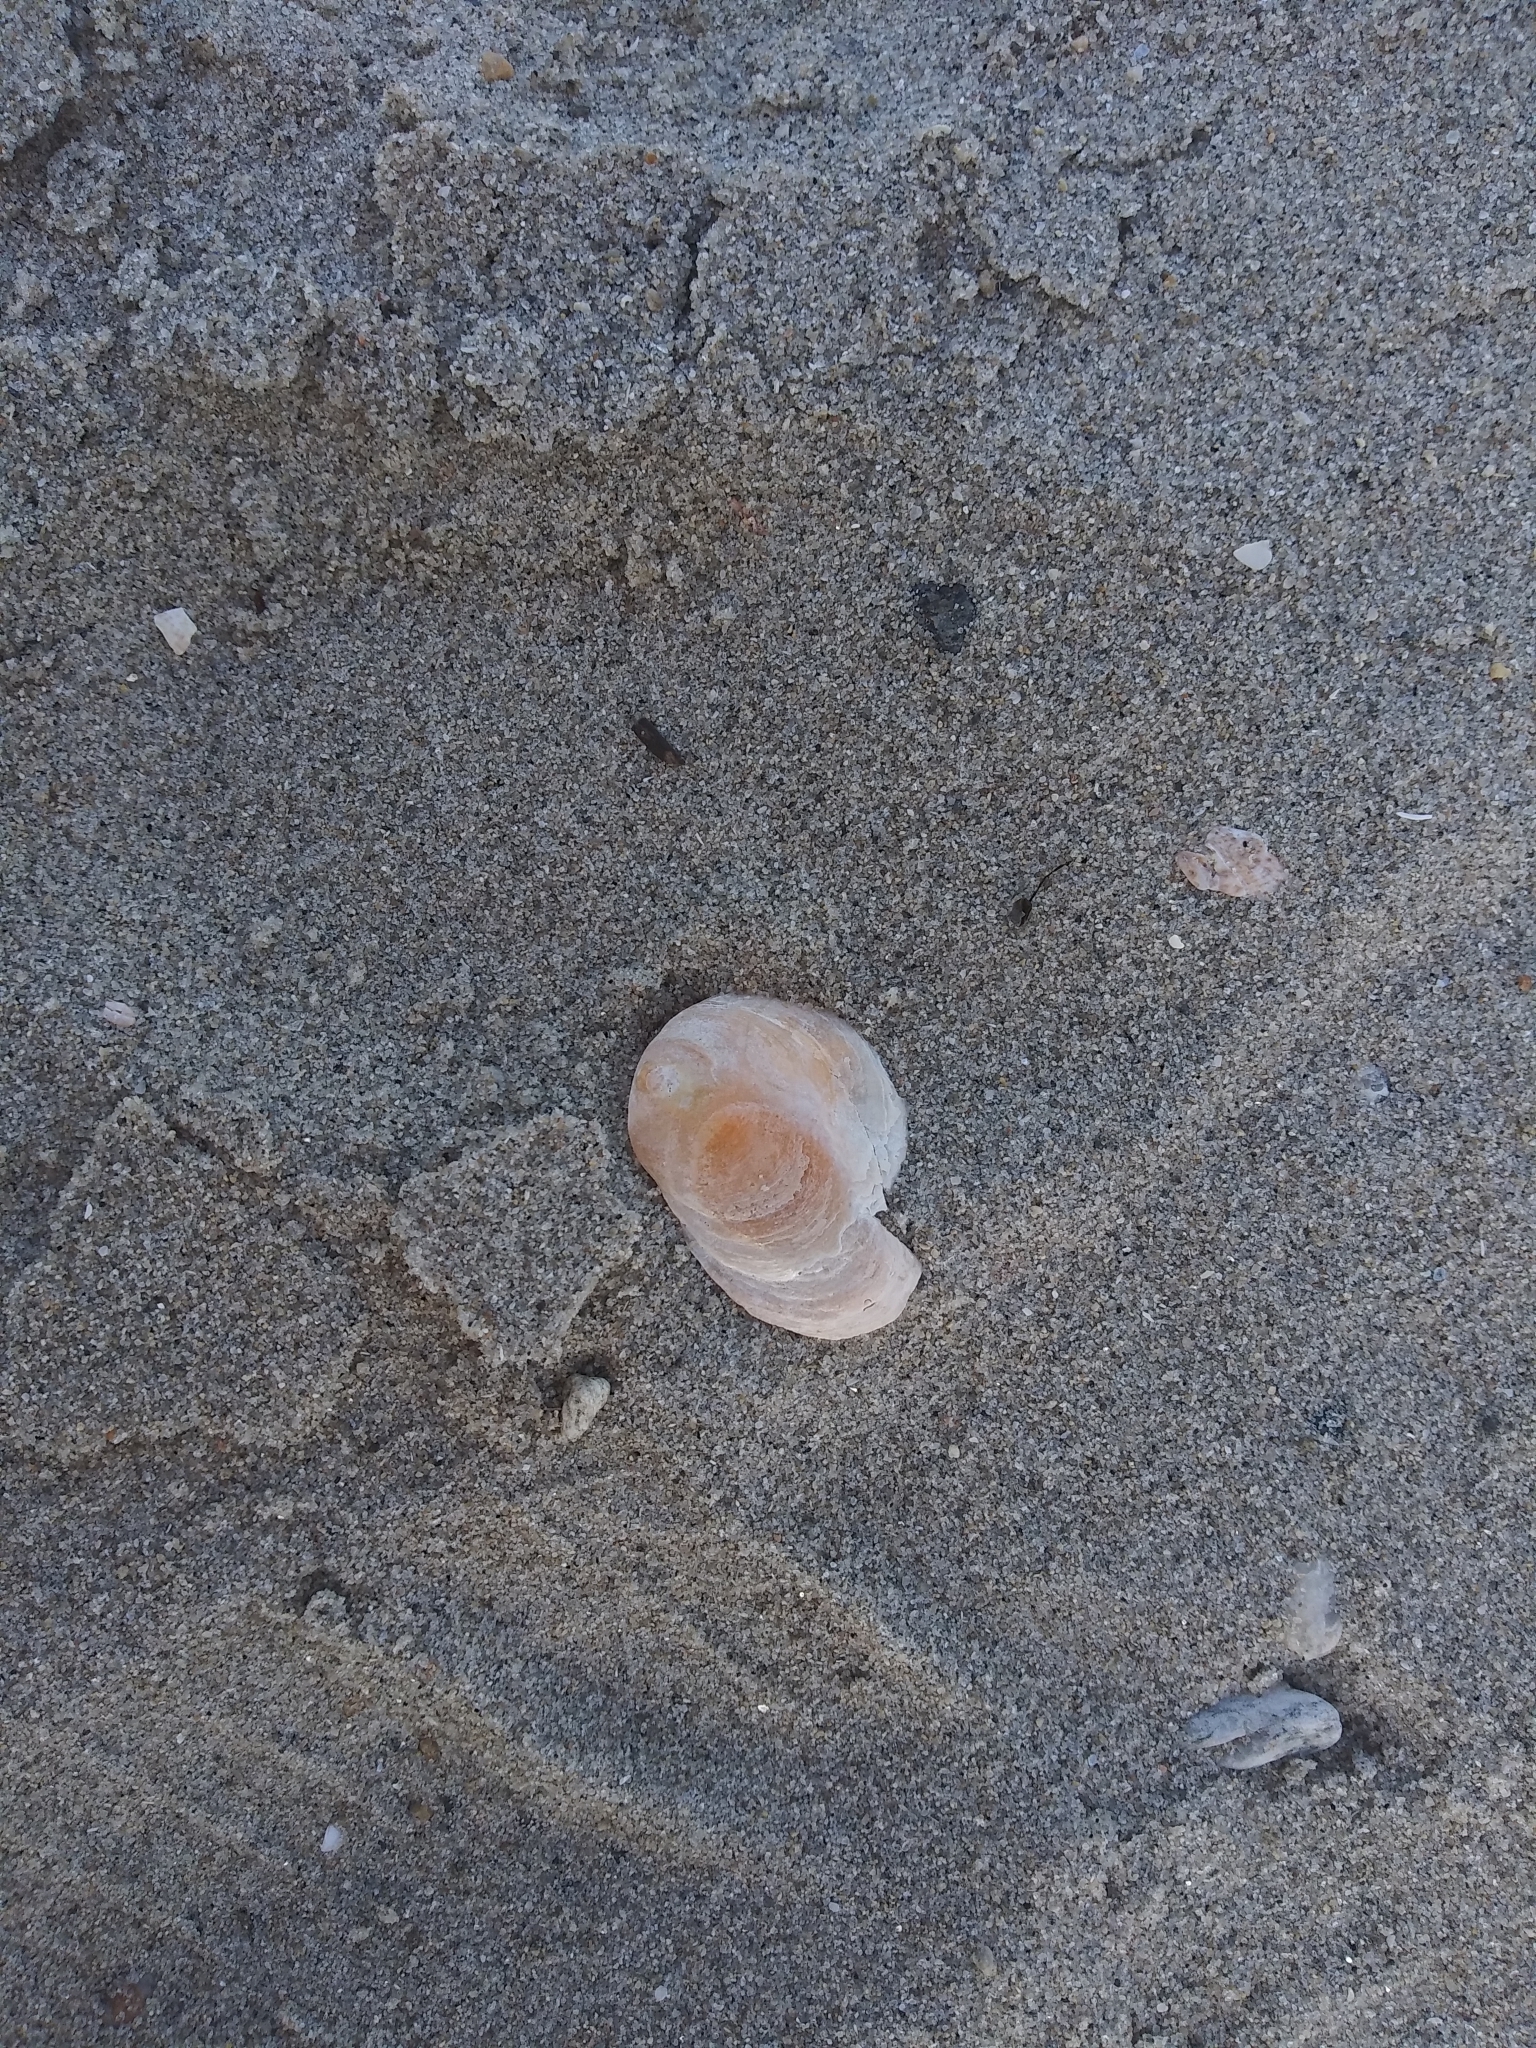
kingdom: Animalia
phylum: Mollusca
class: Bivalvia
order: Pectinida
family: Anomiidae
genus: Anomia
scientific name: Anomia simplex
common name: Common jingle shell
